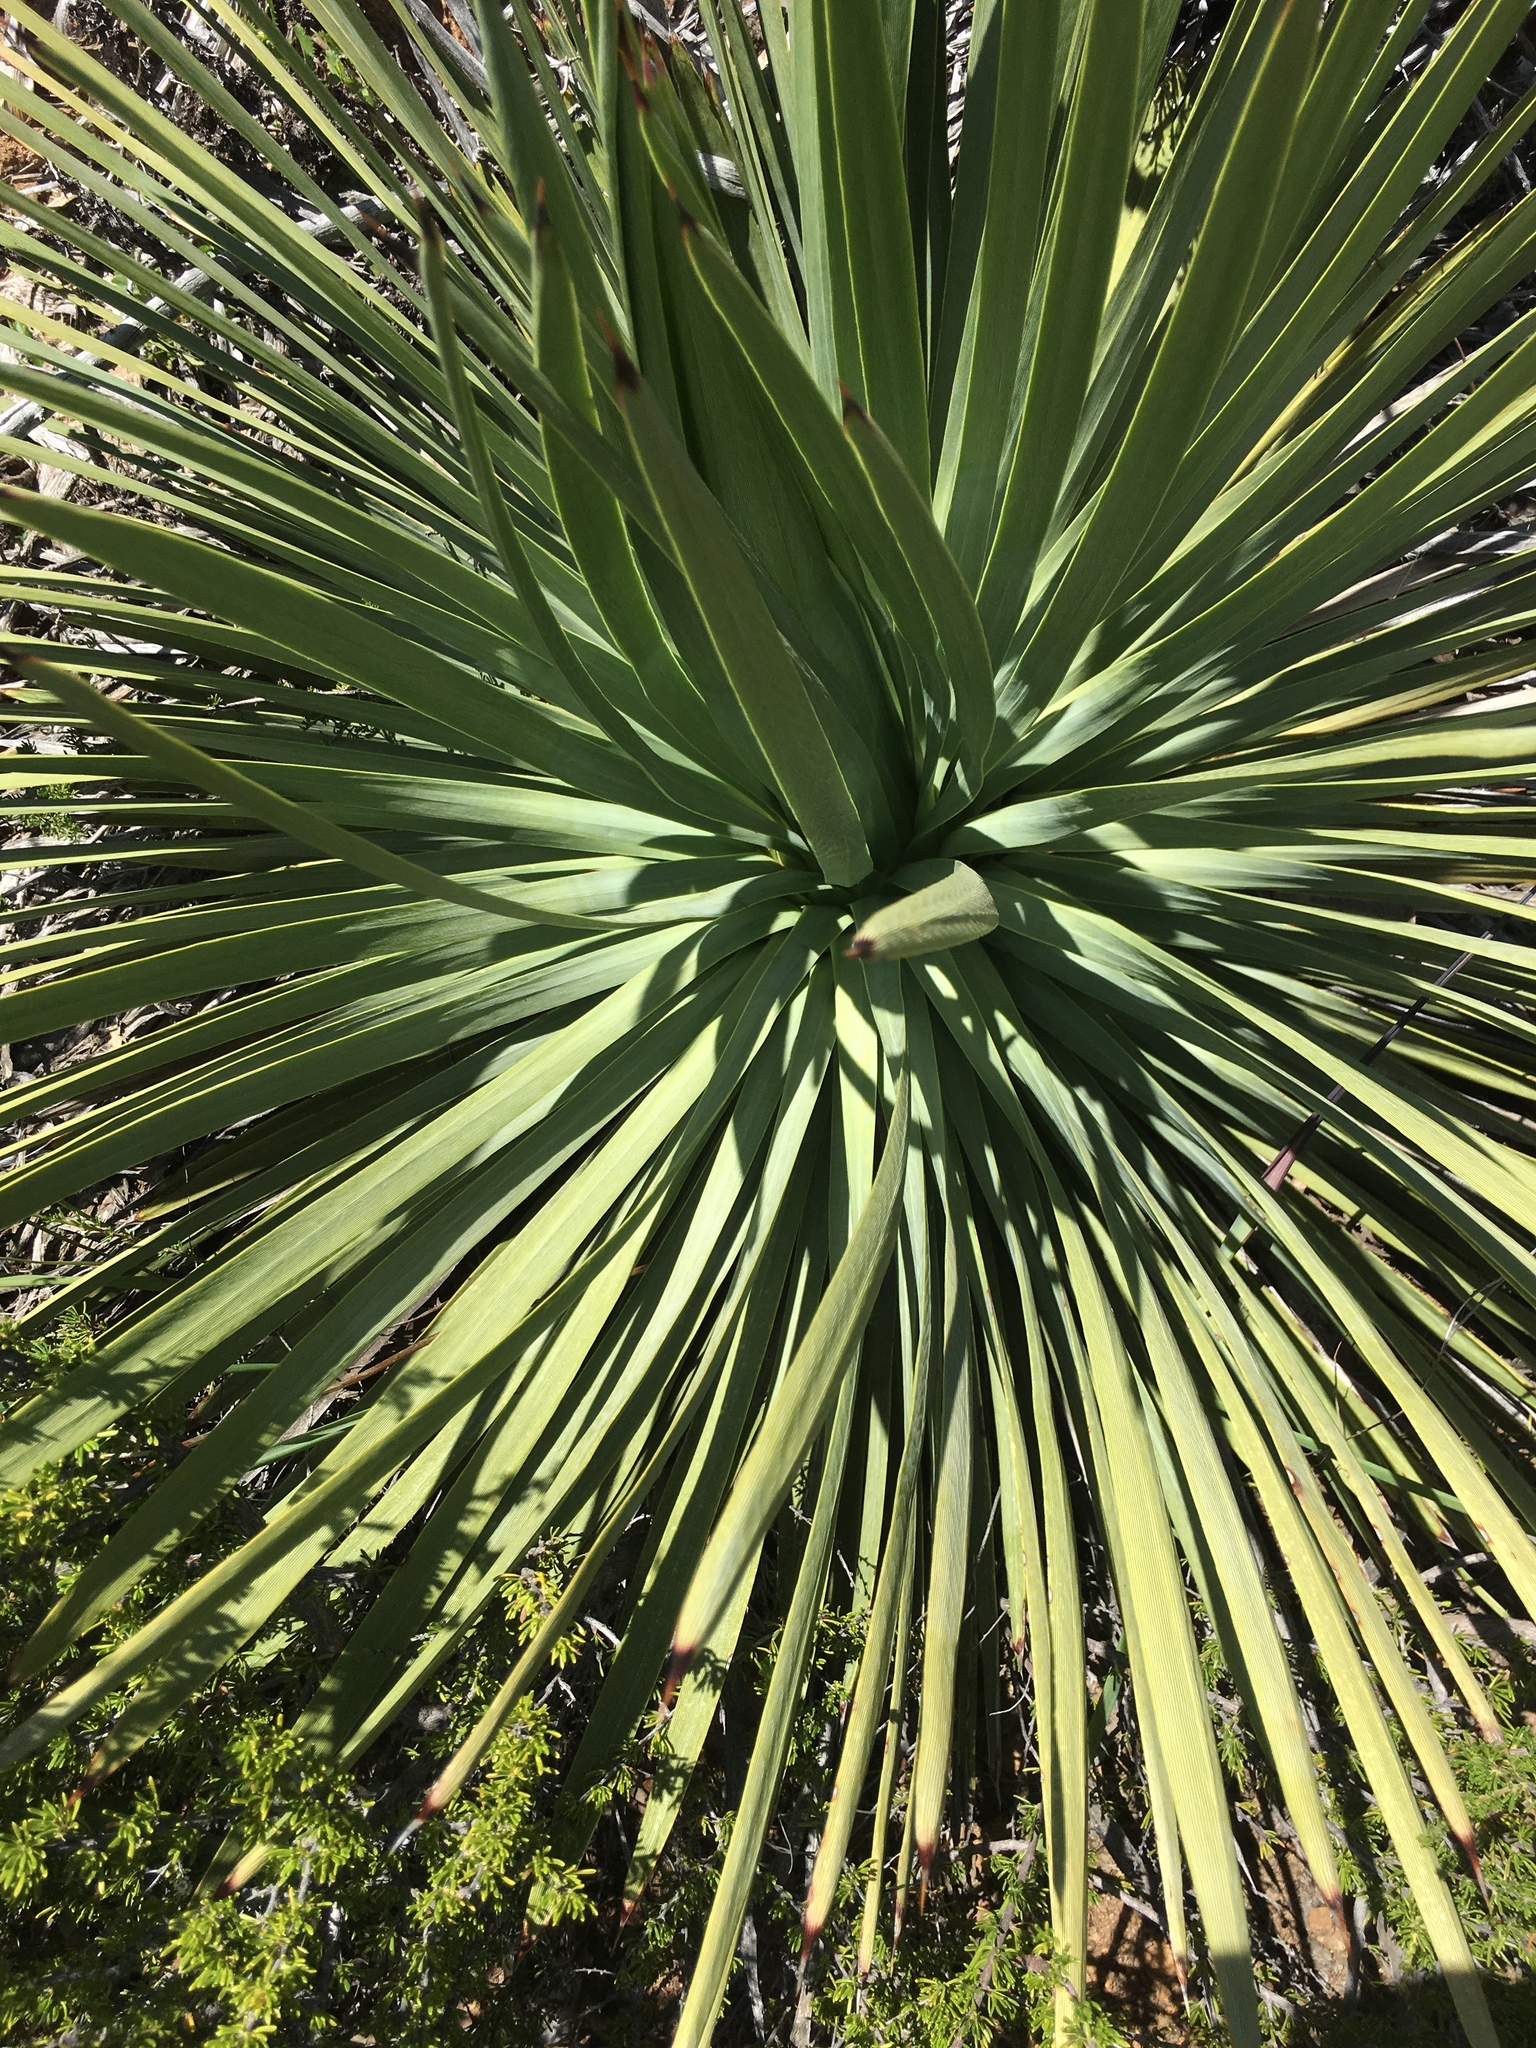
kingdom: Plantae
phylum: Tracheophyta
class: Liliopsida
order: Asparagales
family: Asparagaceae
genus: Hesperoyucca
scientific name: Hesperoyucca whipplei
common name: Our lord's-candle
